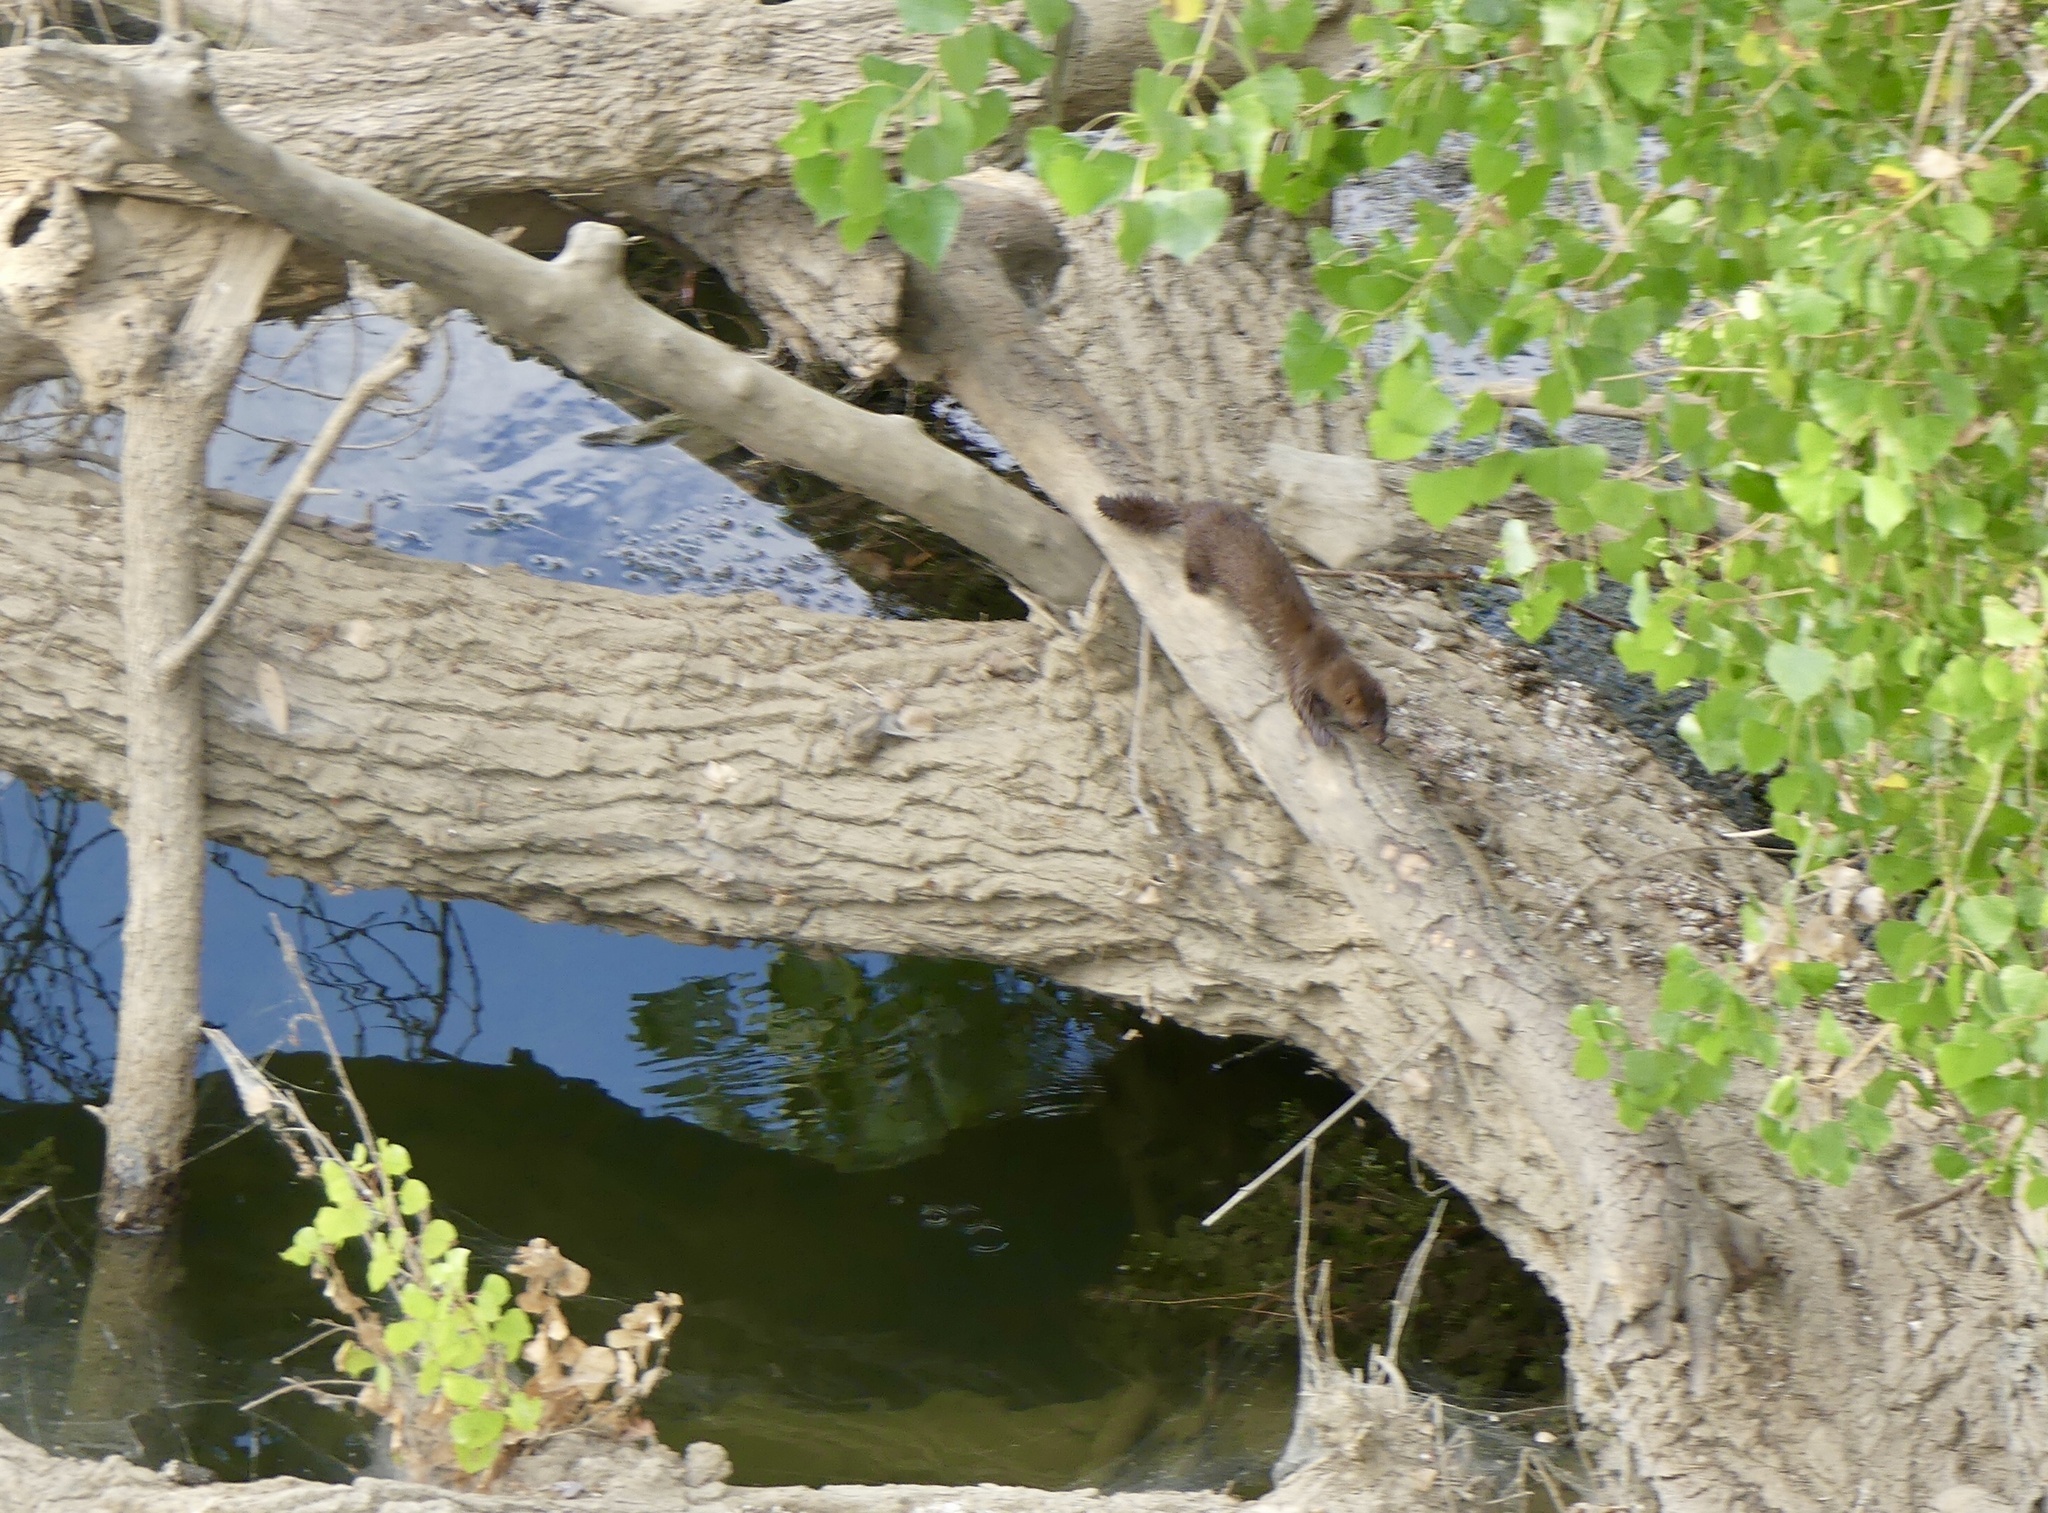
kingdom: Animalia
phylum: Chordata
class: Mammalia
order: Carnivora
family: Mustelidae
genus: Mustela
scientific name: Mustela
